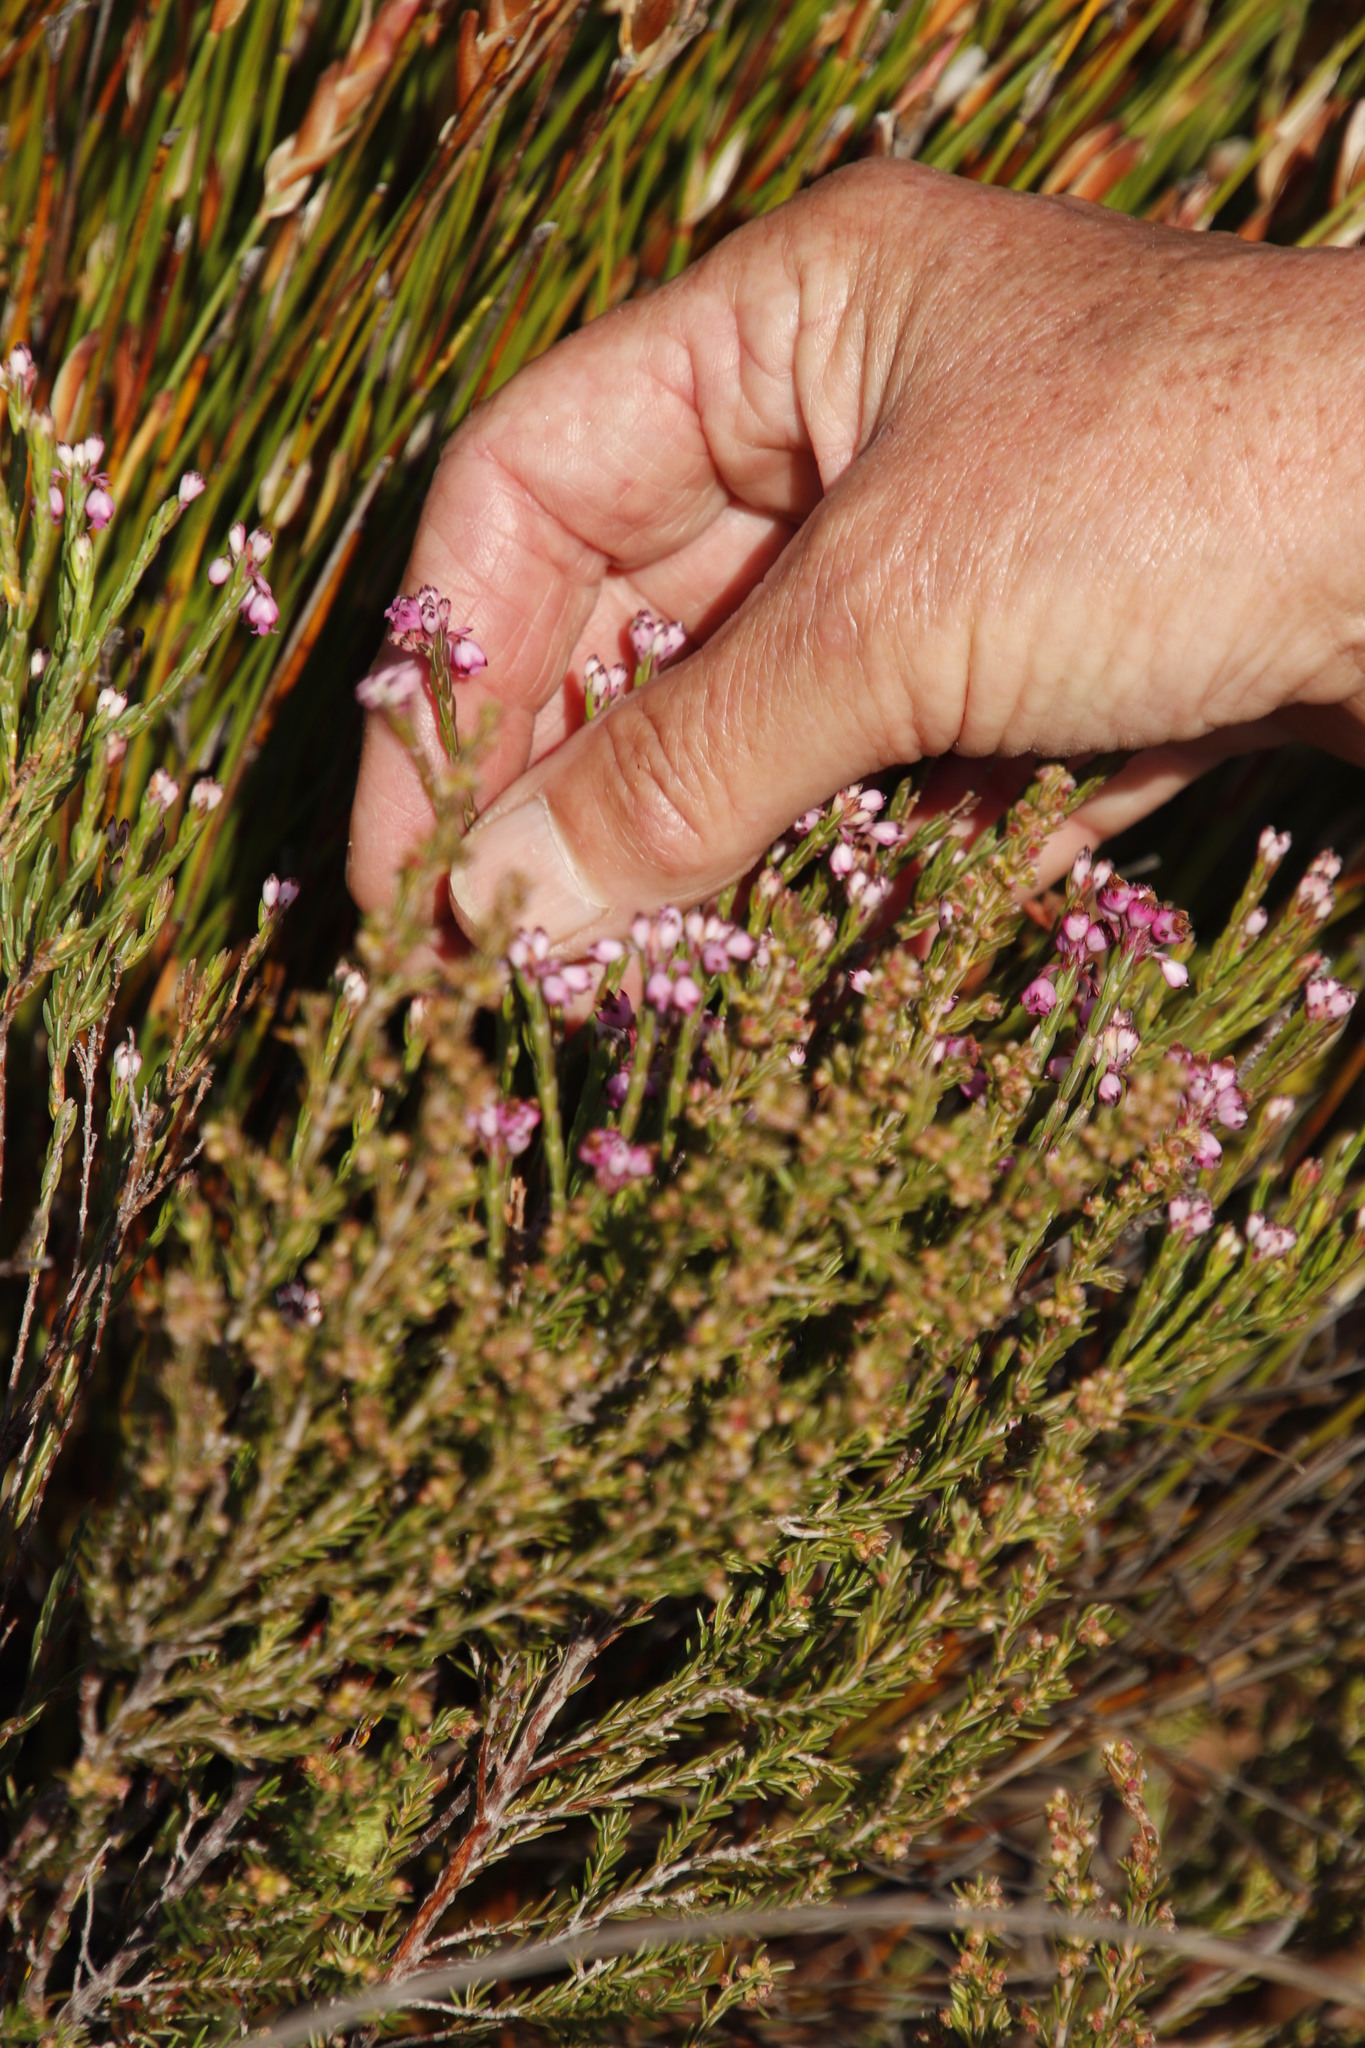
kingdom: Plantae
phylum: Tracheophyta
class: Magnoliopsida
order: Ericales
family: Ericaceae
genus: Erica
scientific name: Erica articularis
